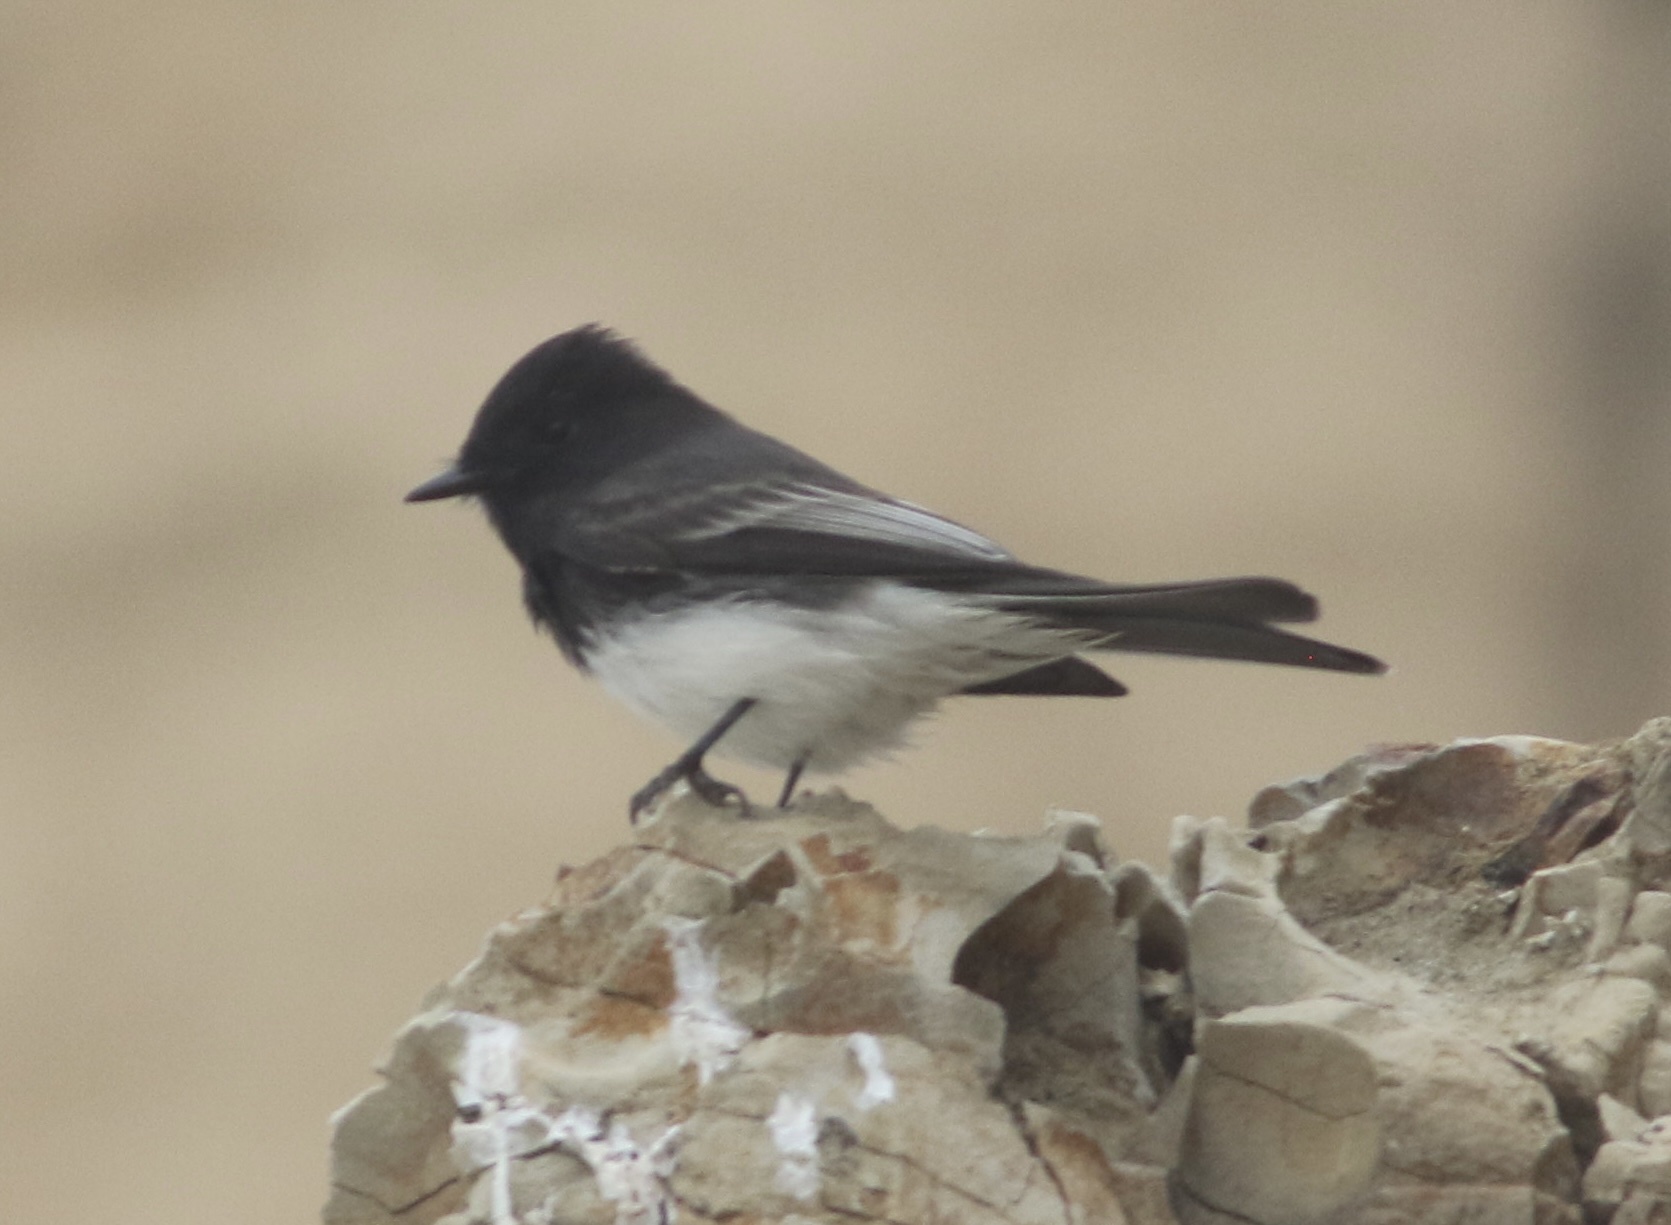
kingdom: Animalia
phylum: Chordata
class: Aves
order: Passeriformes
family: Tyrannidae
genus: Sayornis
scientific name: Sayornis nigricans
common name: Black phoebe
